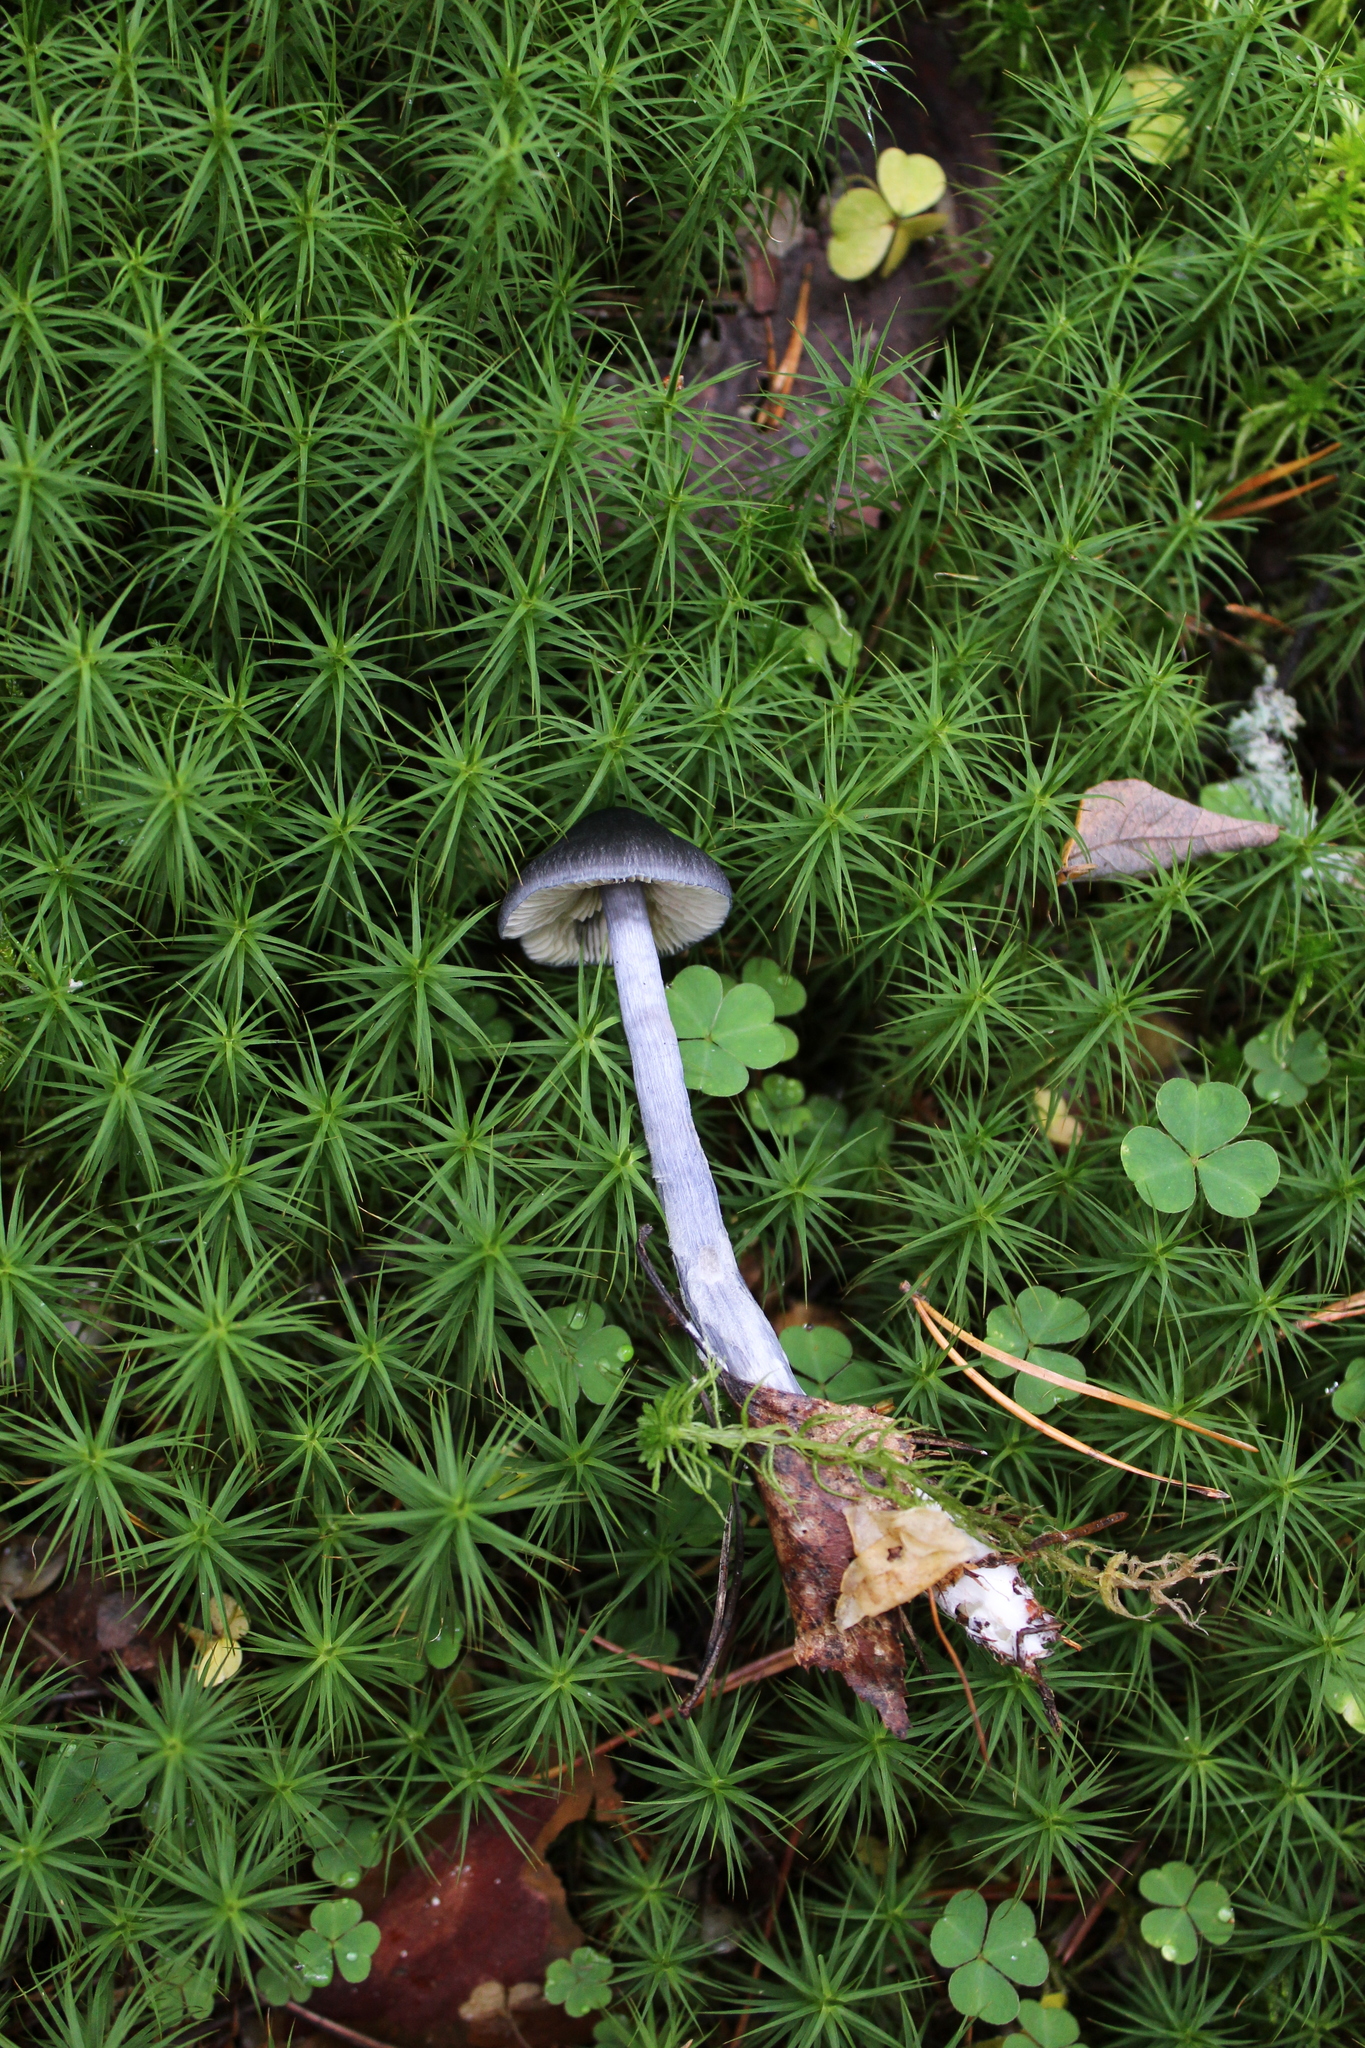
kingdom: Fungi
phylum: Basidiomycota
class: Agaricomycetes
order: Agaricales
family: Entolomataceae
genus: Entocybe
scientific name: Entocybe nitida
